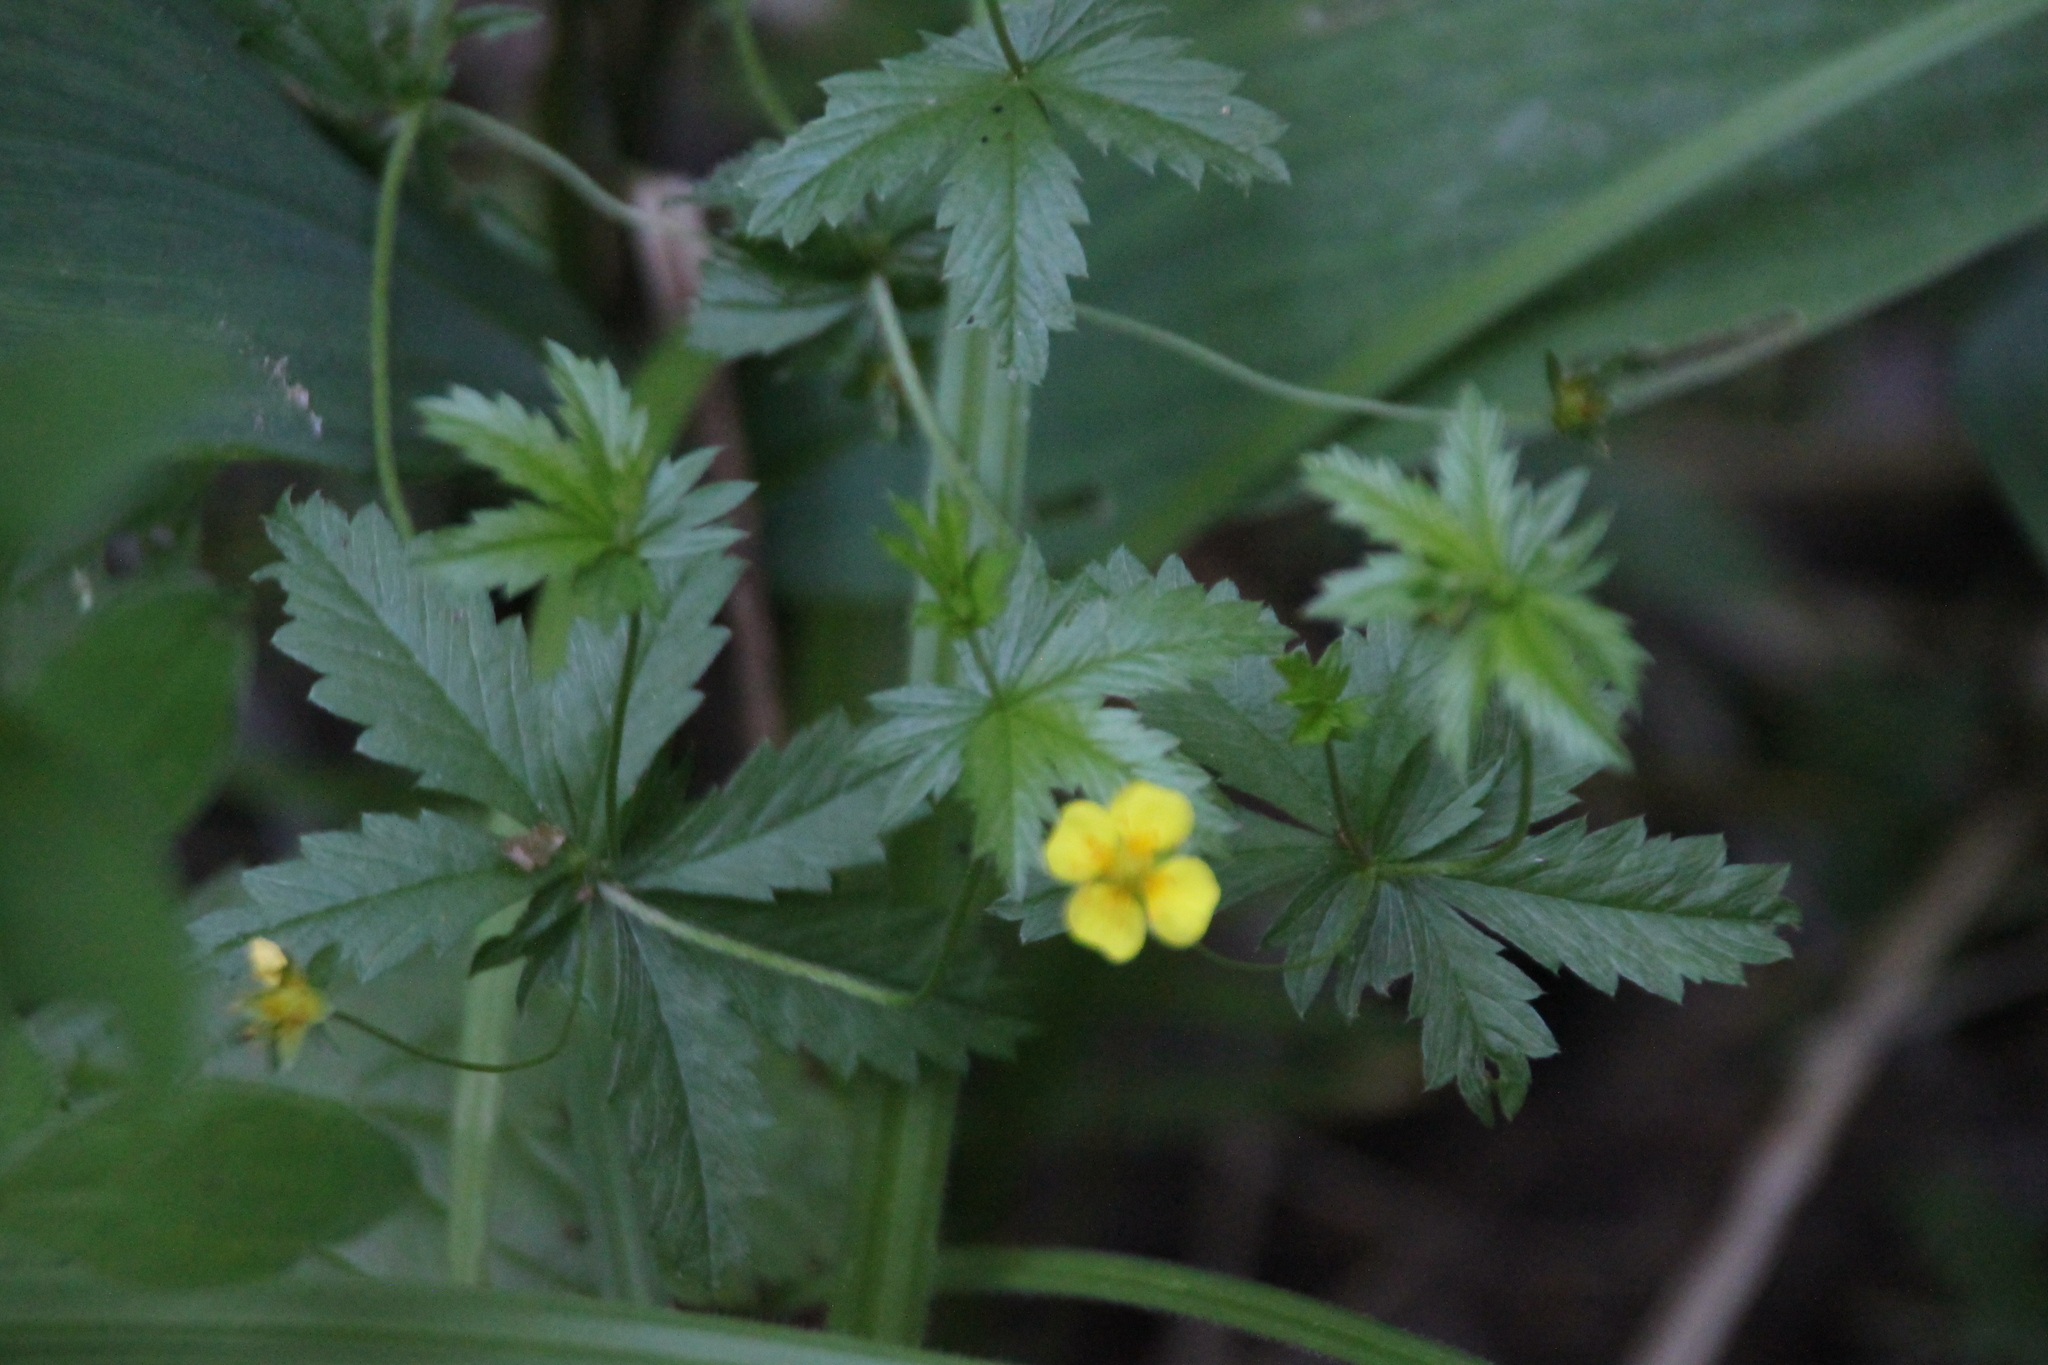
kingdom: Plantae
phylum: Tracheophyta
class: Magnoliopsida
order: Rosales
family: Rosaceae
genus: Potentilla
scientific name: Potentilla erecta
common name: Tormentil
